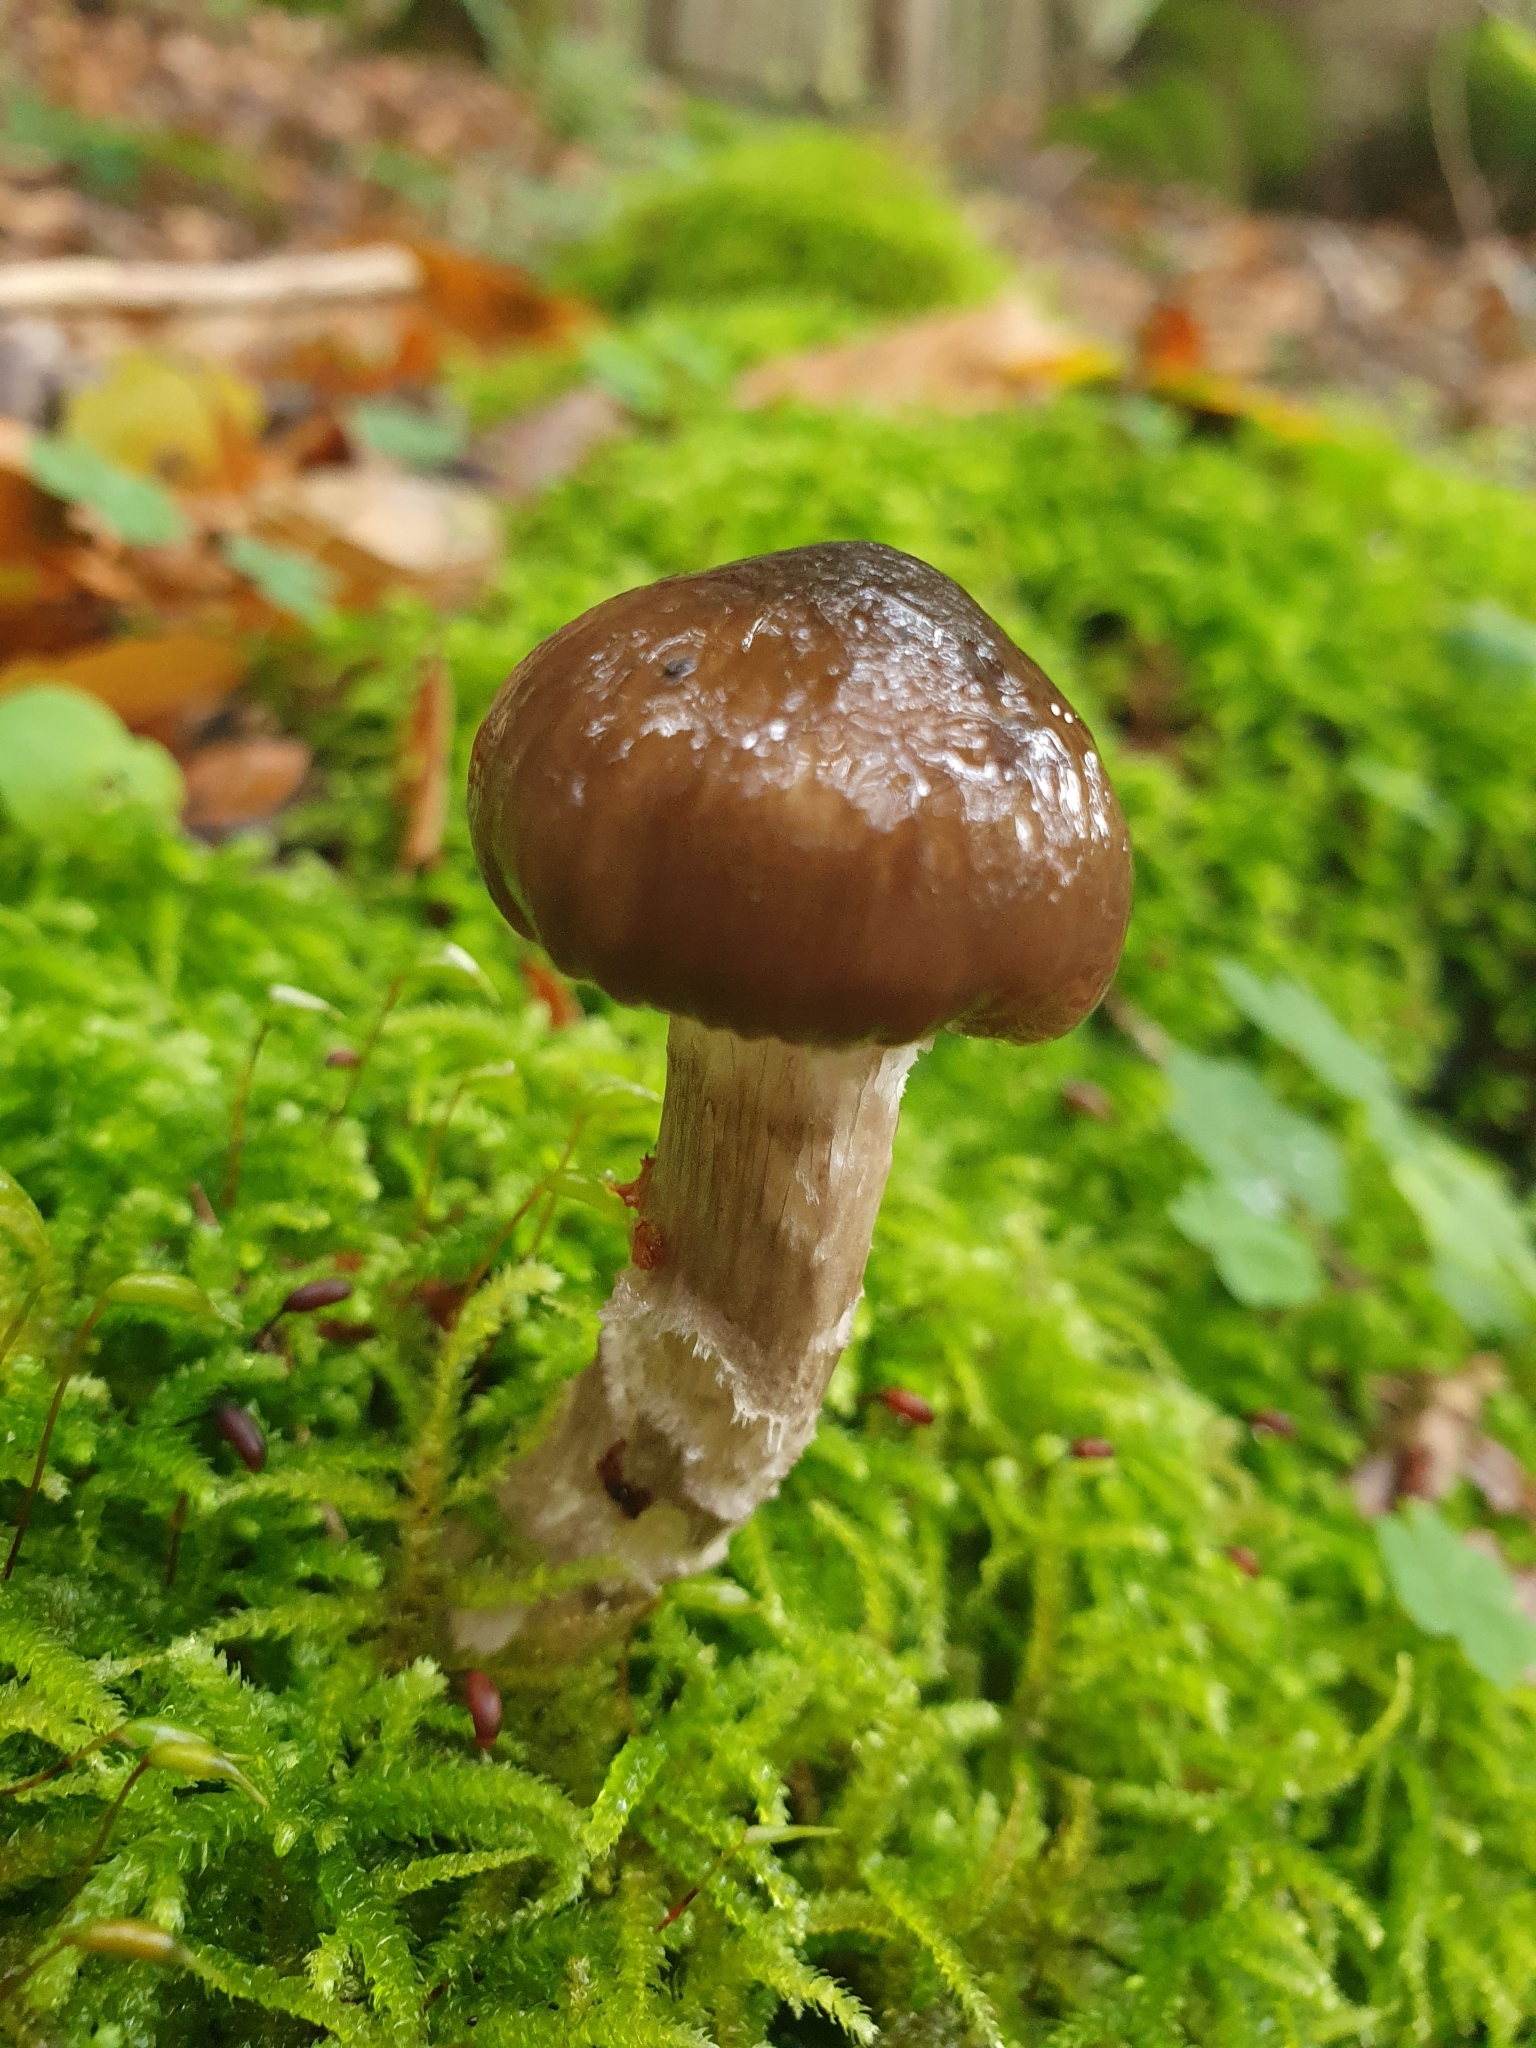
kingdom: Fungi
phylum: Basidiomycota
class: Agaricomycetes
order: Agaricales
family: Hygrophoraceae
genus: Hygrophorus
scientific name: Hygrophorus olivaceoalbus
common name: Olive wax cap
